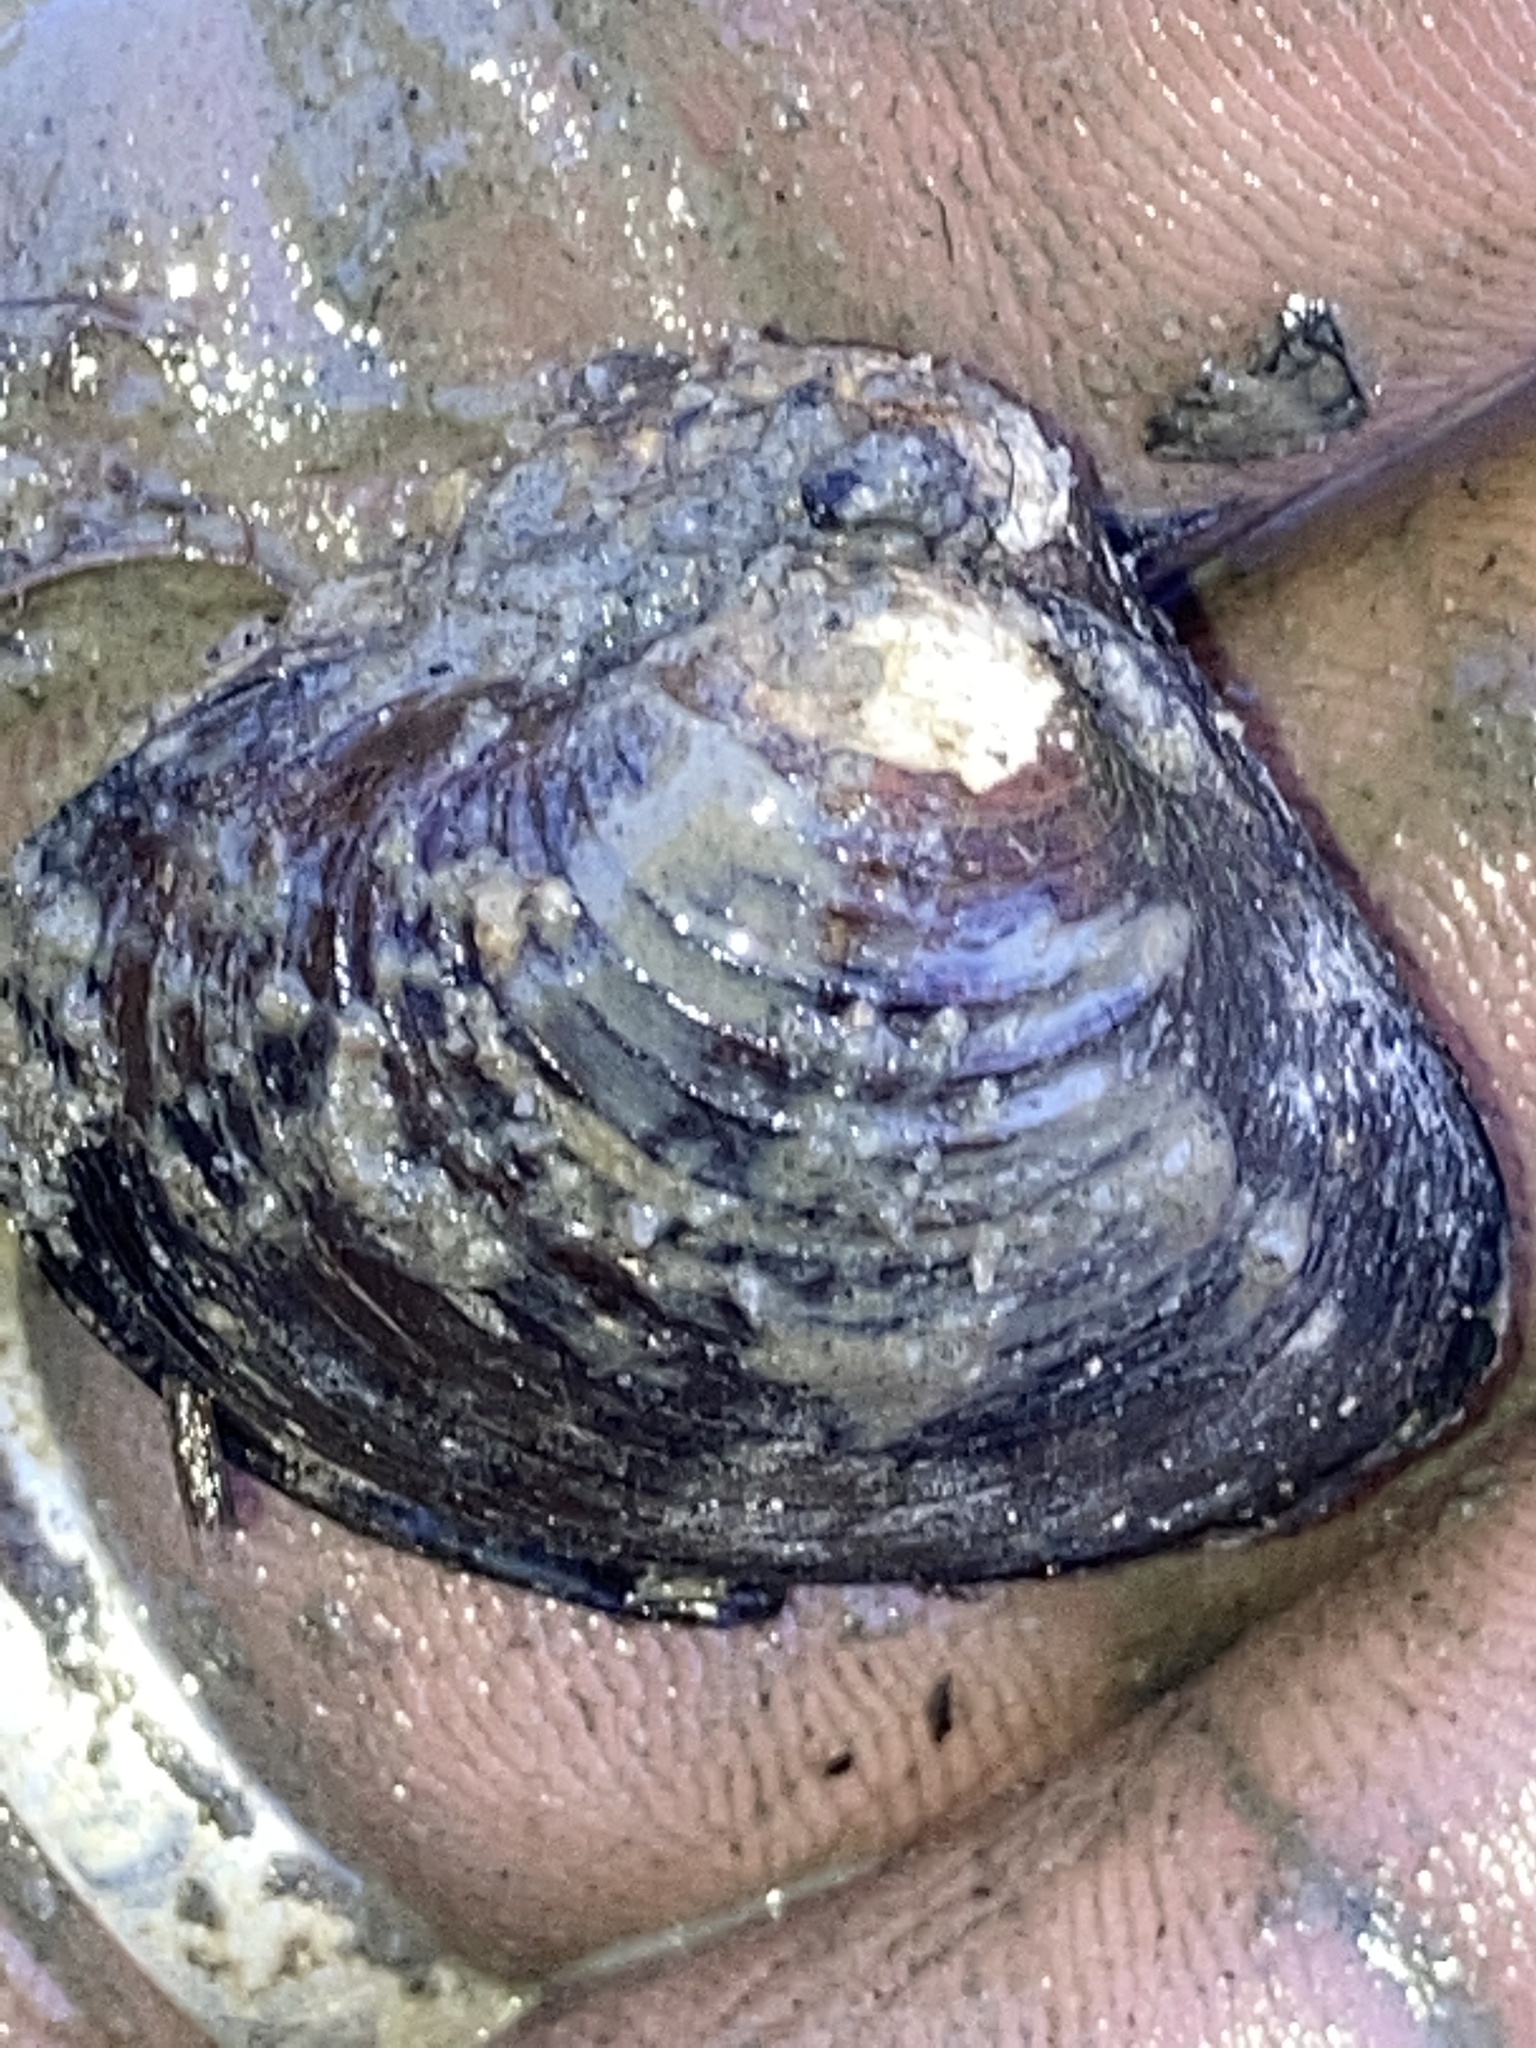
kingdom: Animalia
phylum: Mollusca
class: Bivalvia
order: Venerida
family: Cyrenidae
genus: Corbicula
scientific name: Corbicula fluminea
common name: Asian clam
